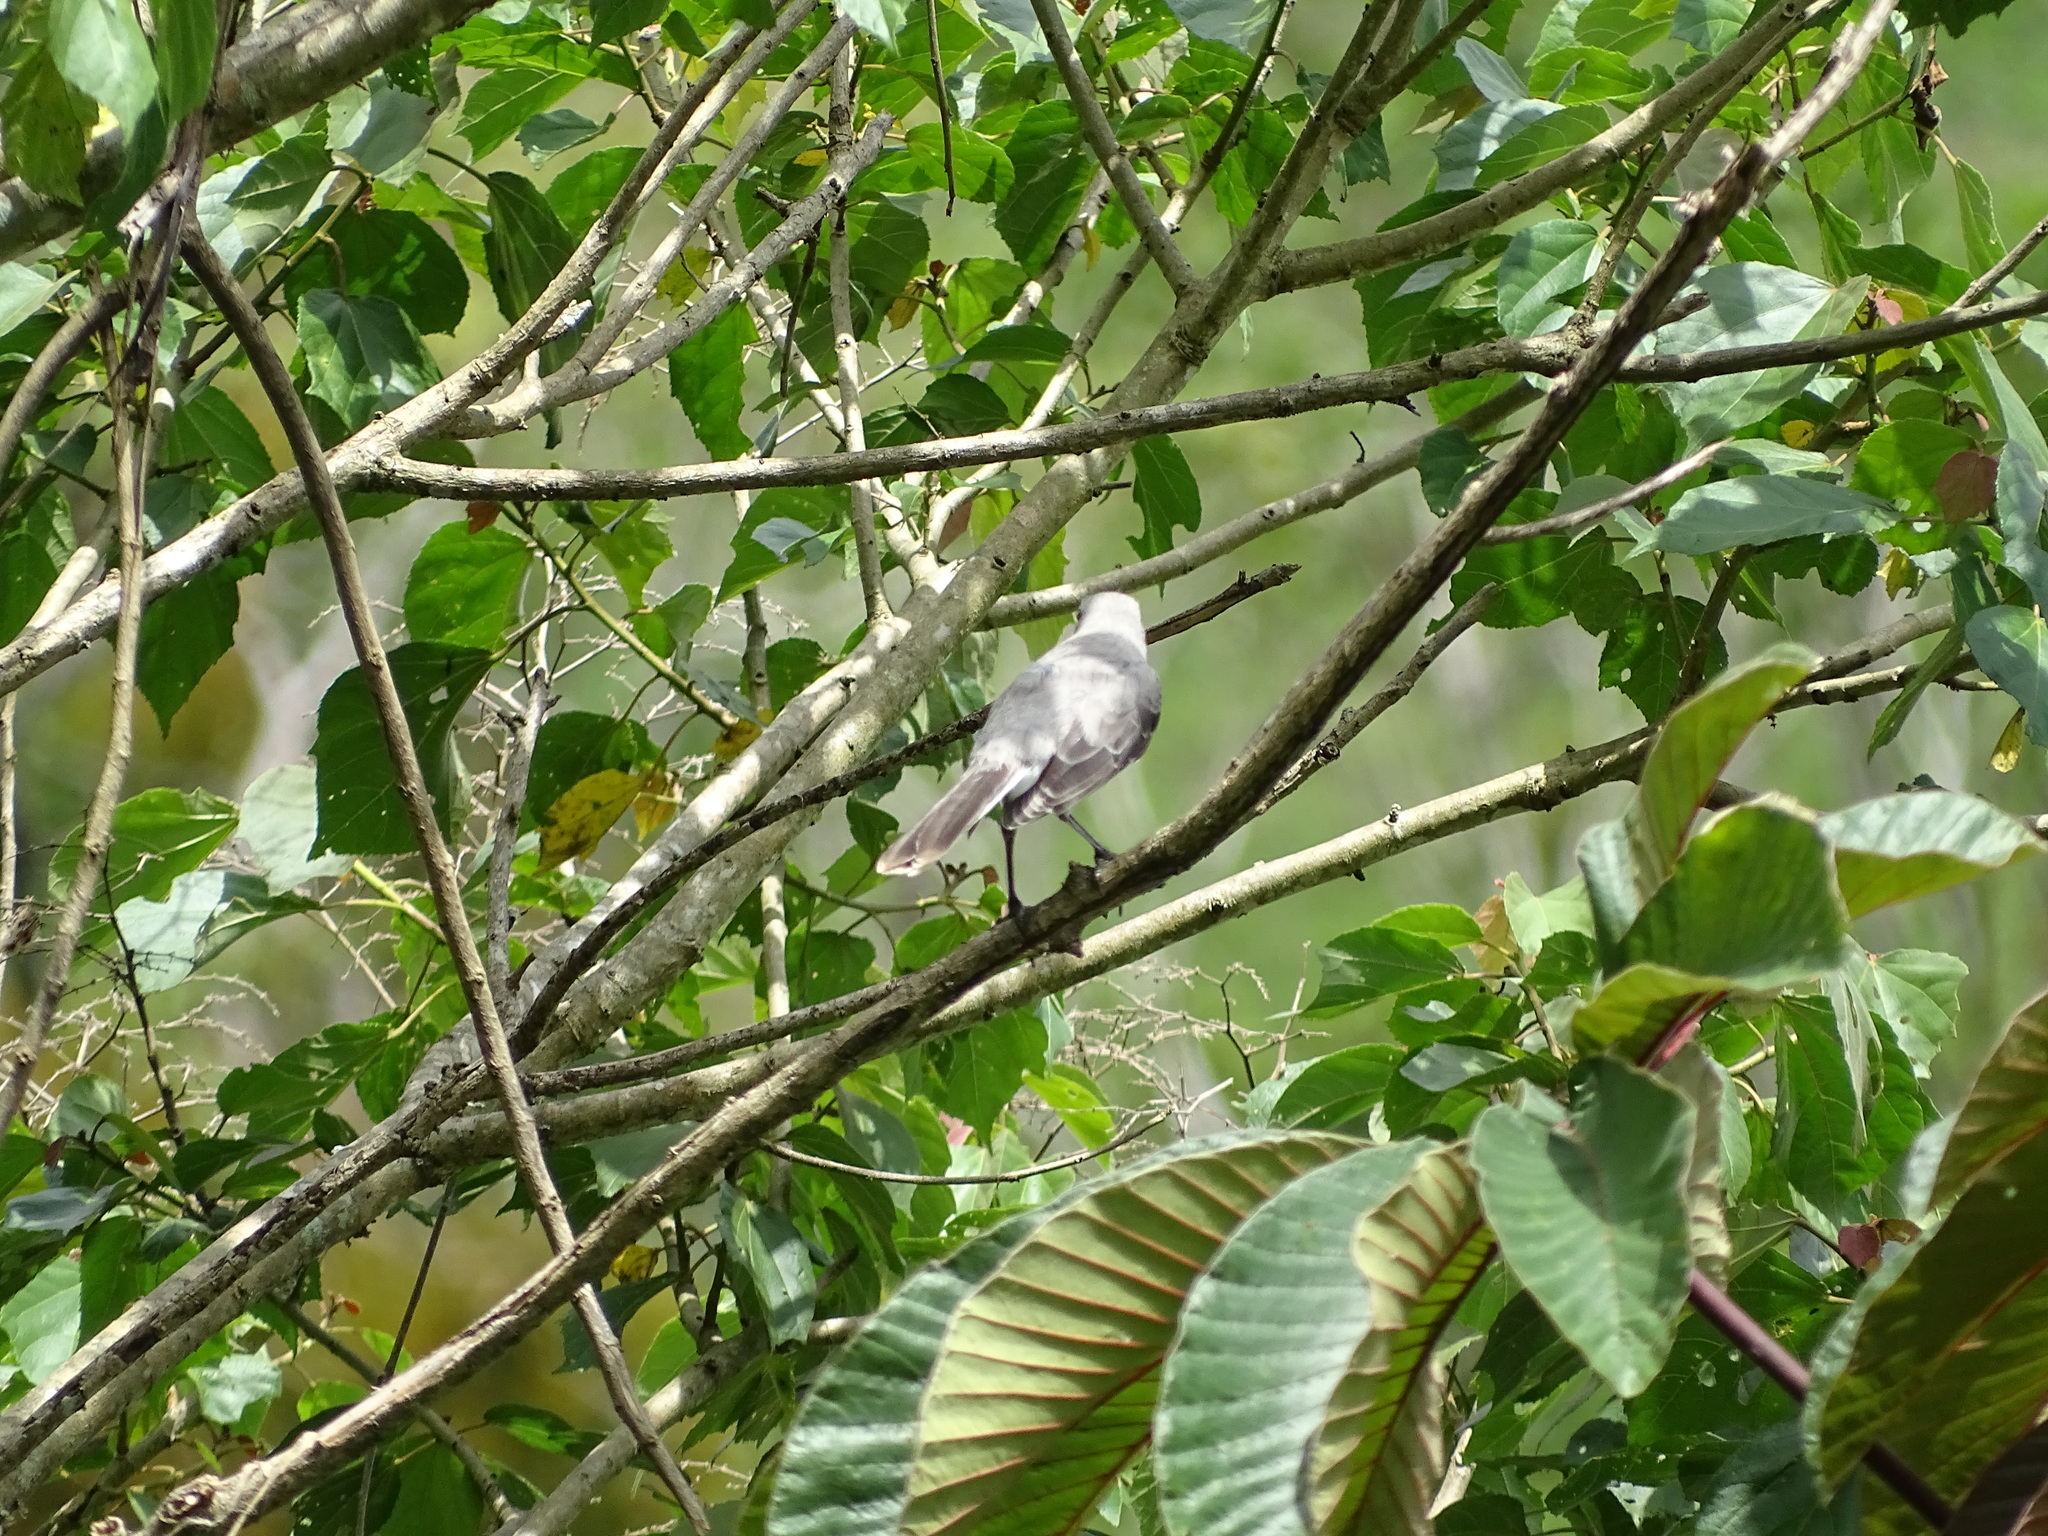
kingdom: Animalia
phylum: Chordata
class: Aves
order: Passeriformes
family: Mimidae
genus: Mimus
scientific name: Mimus gilvus
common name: Tropical mockingbird
